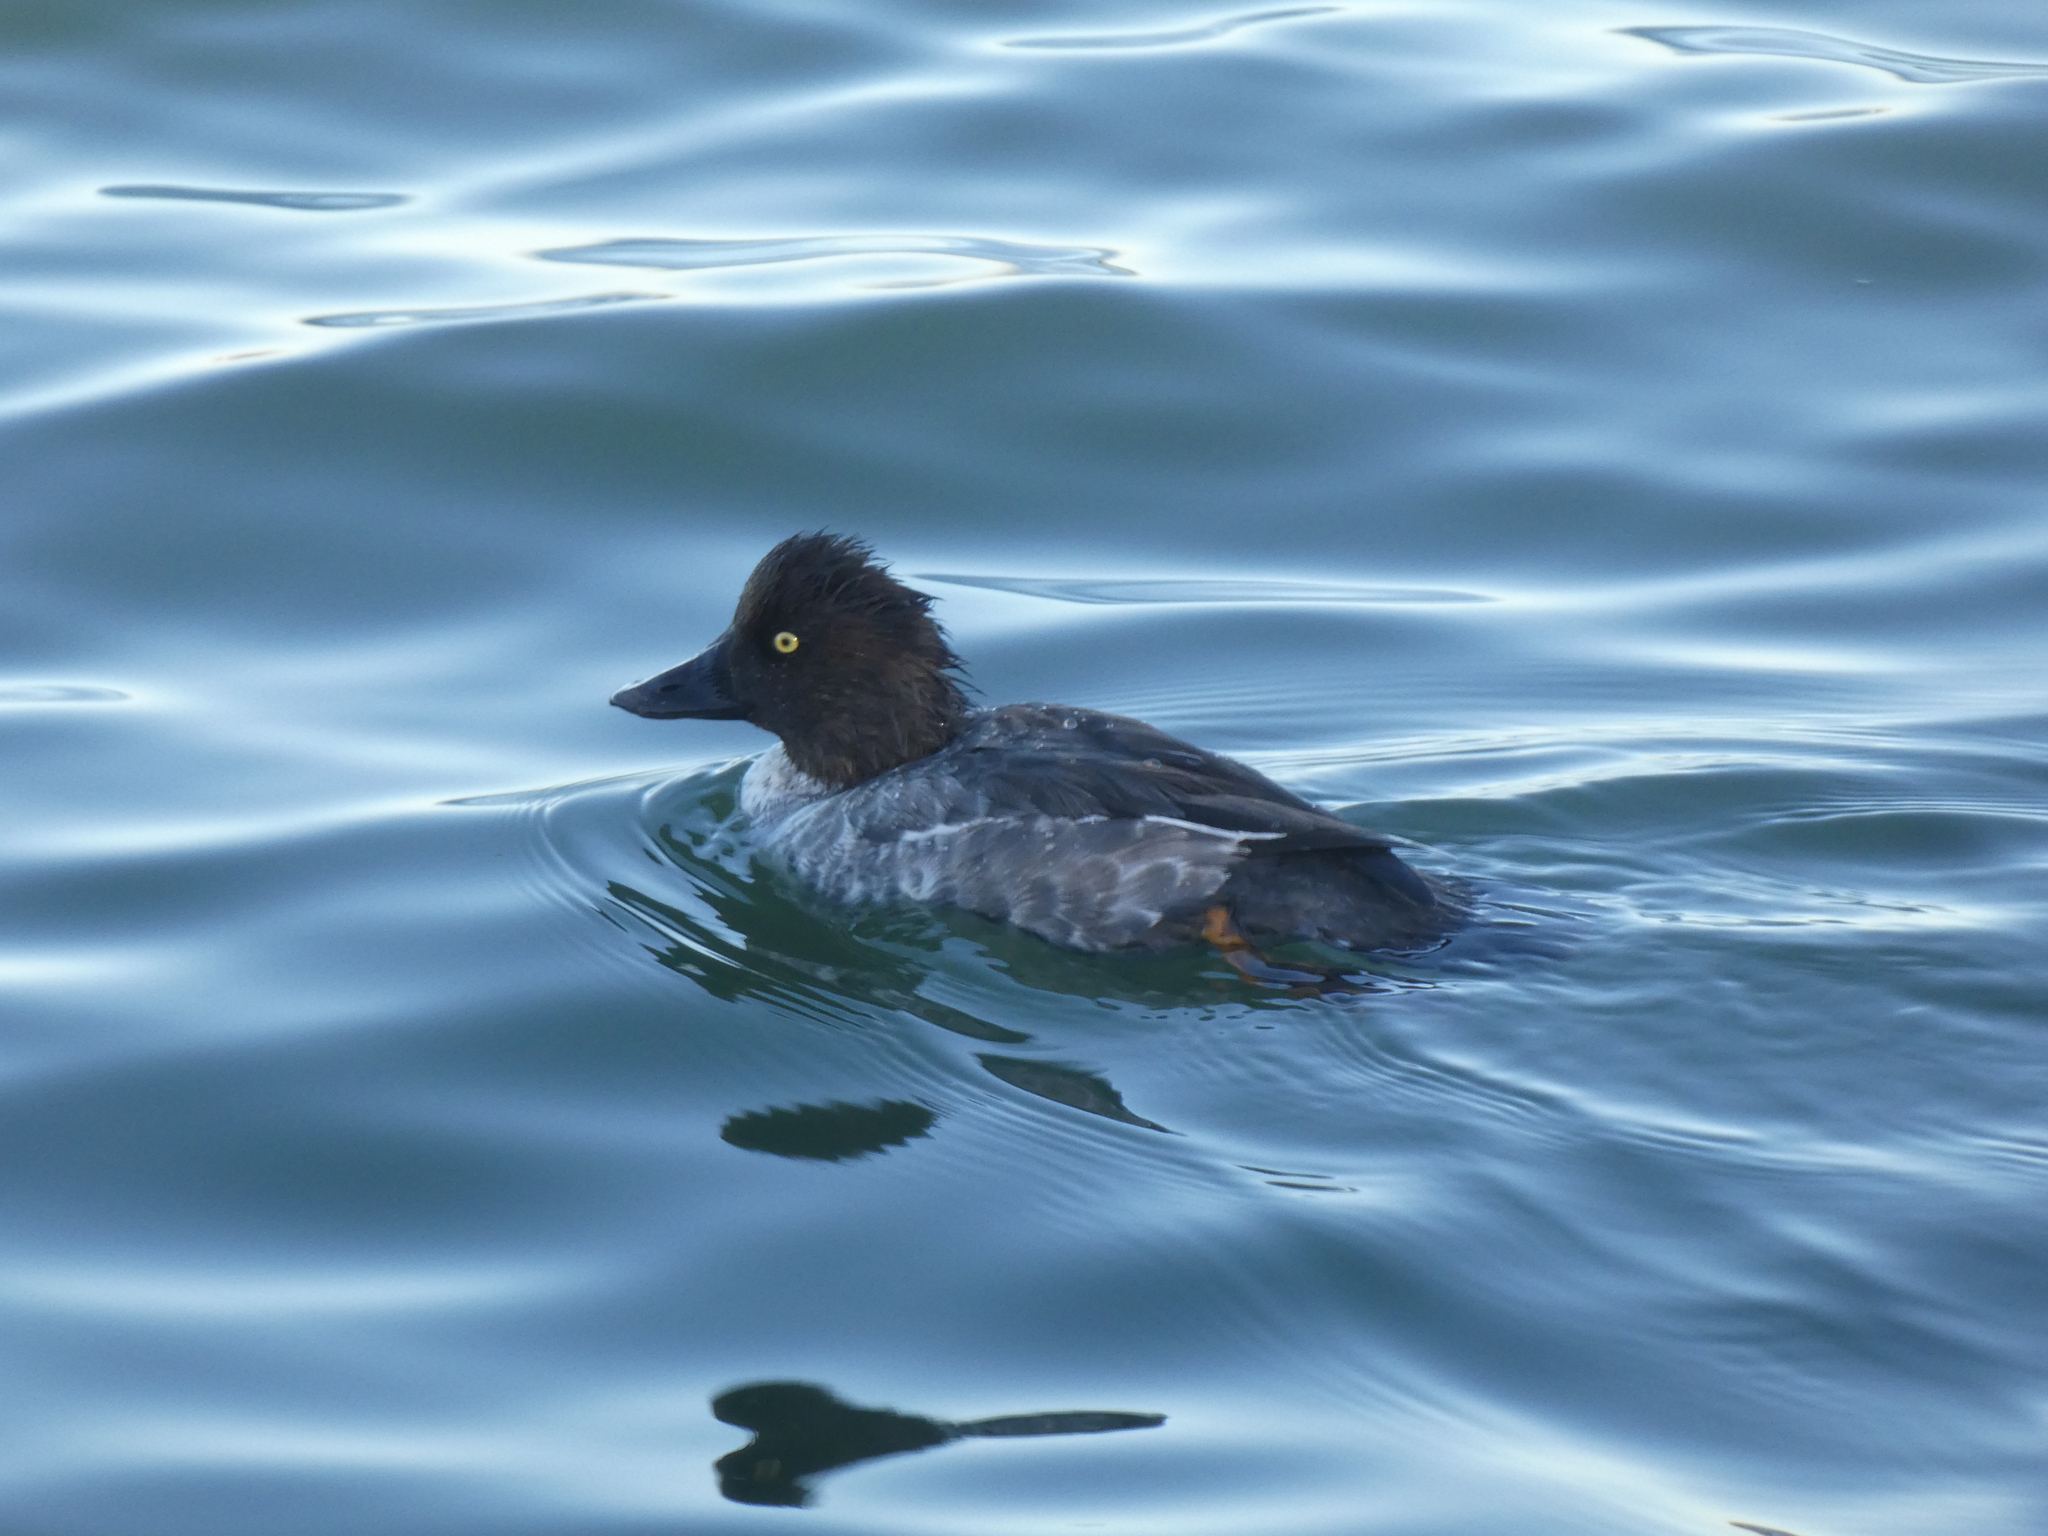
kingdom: Animalia
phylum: Chordata
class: Aves
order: Anseriformes
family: Anatidae
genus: Bucephala
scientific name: Bucephala clangula
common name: Common goldeneye
